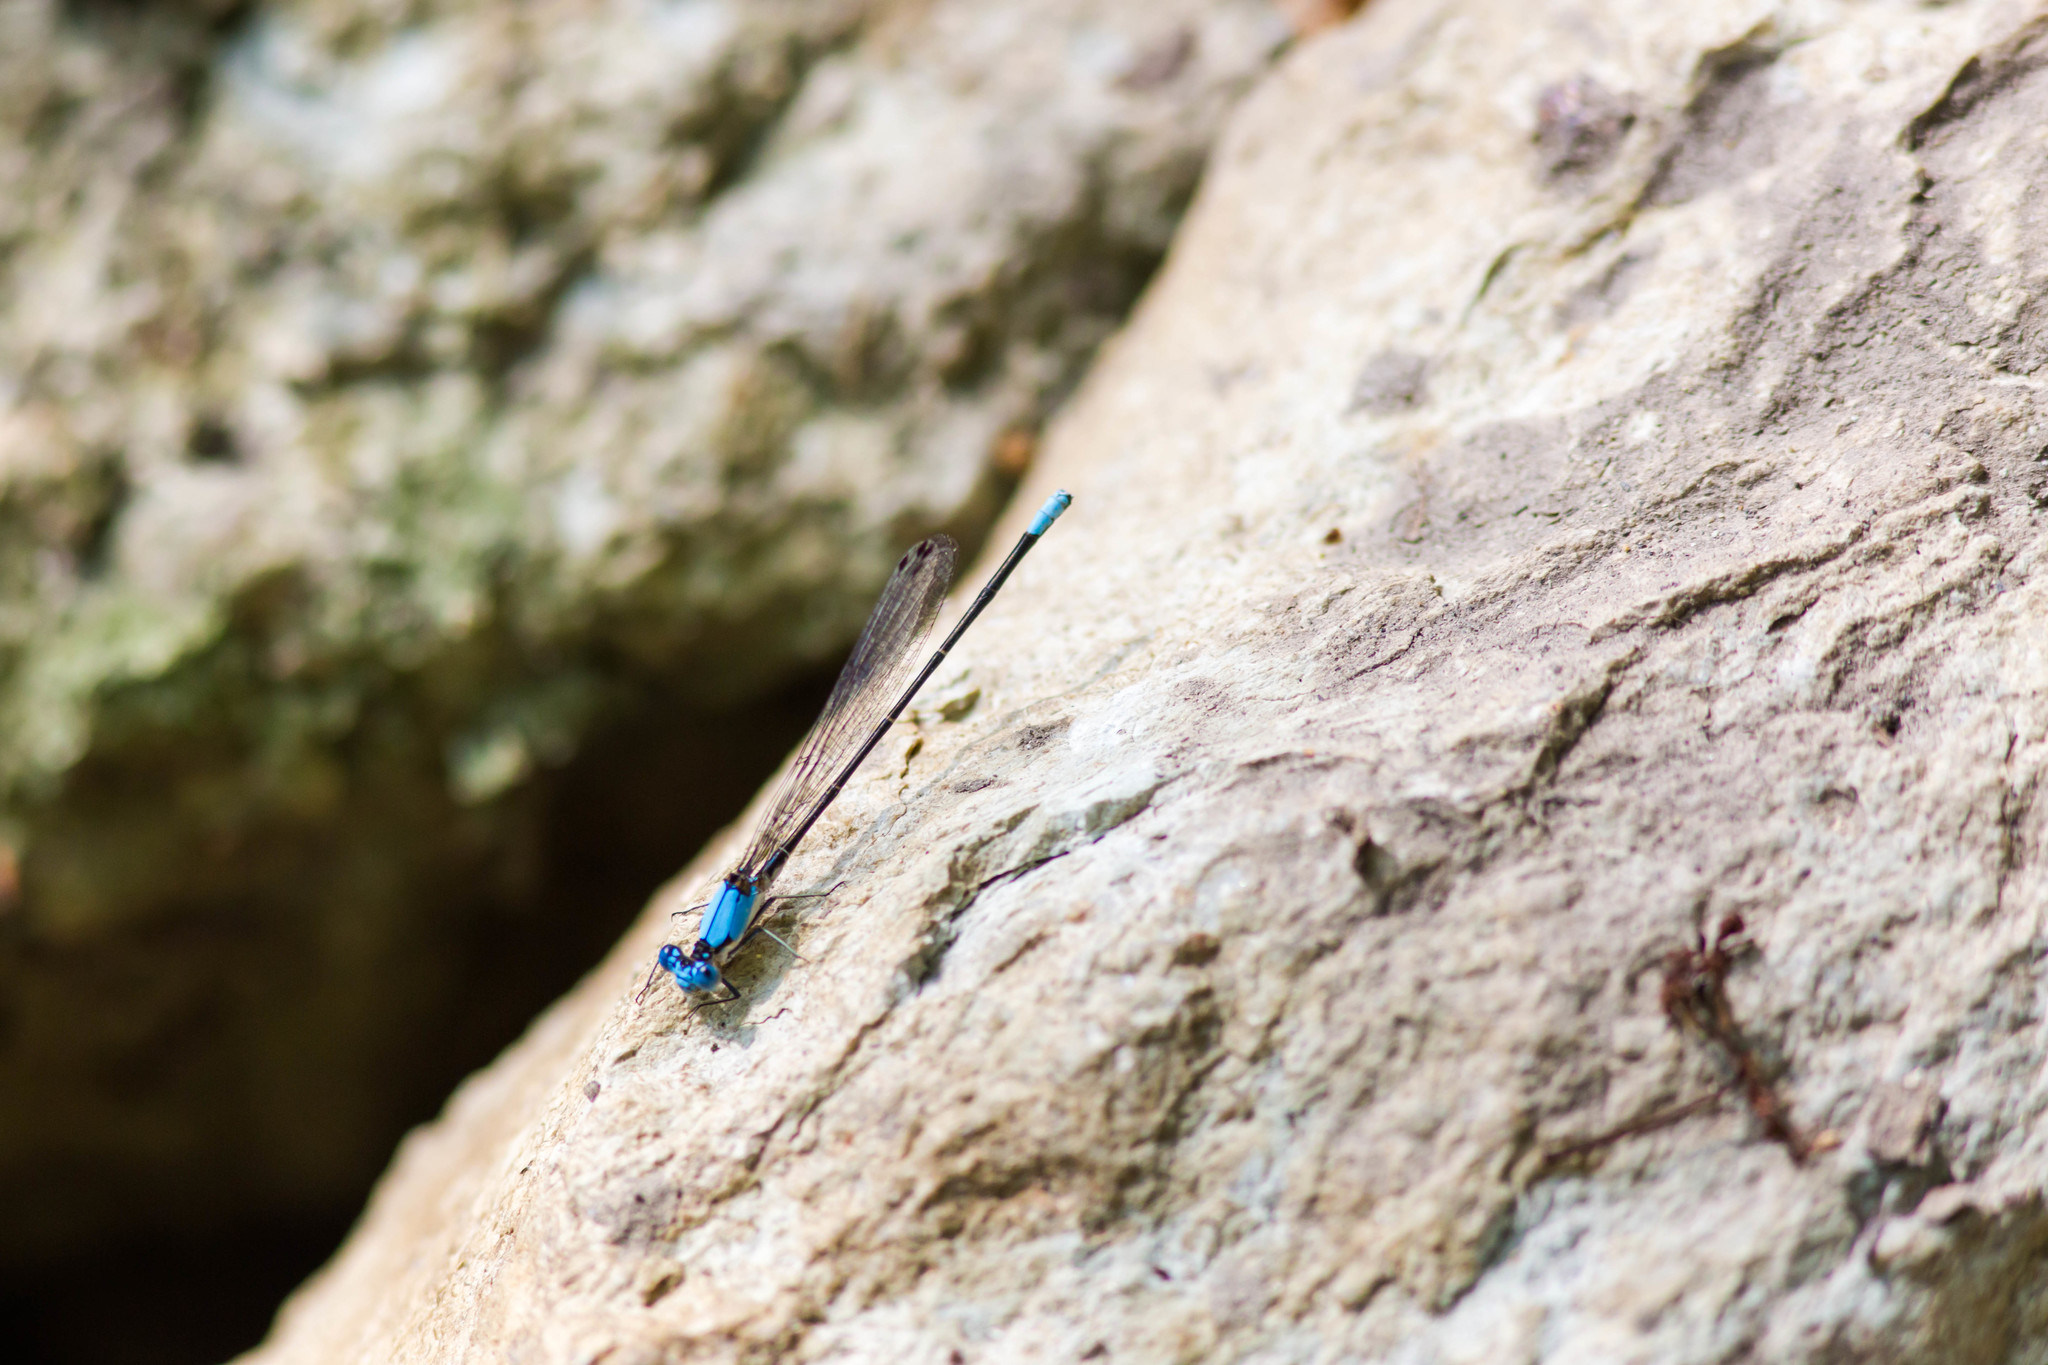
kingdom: Animalia
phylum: Arthropoda
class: Insecta
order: Odonata
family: Coenagrionidae
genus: Argia
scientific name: Argia apicalis
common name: Blue-fronted dancer
